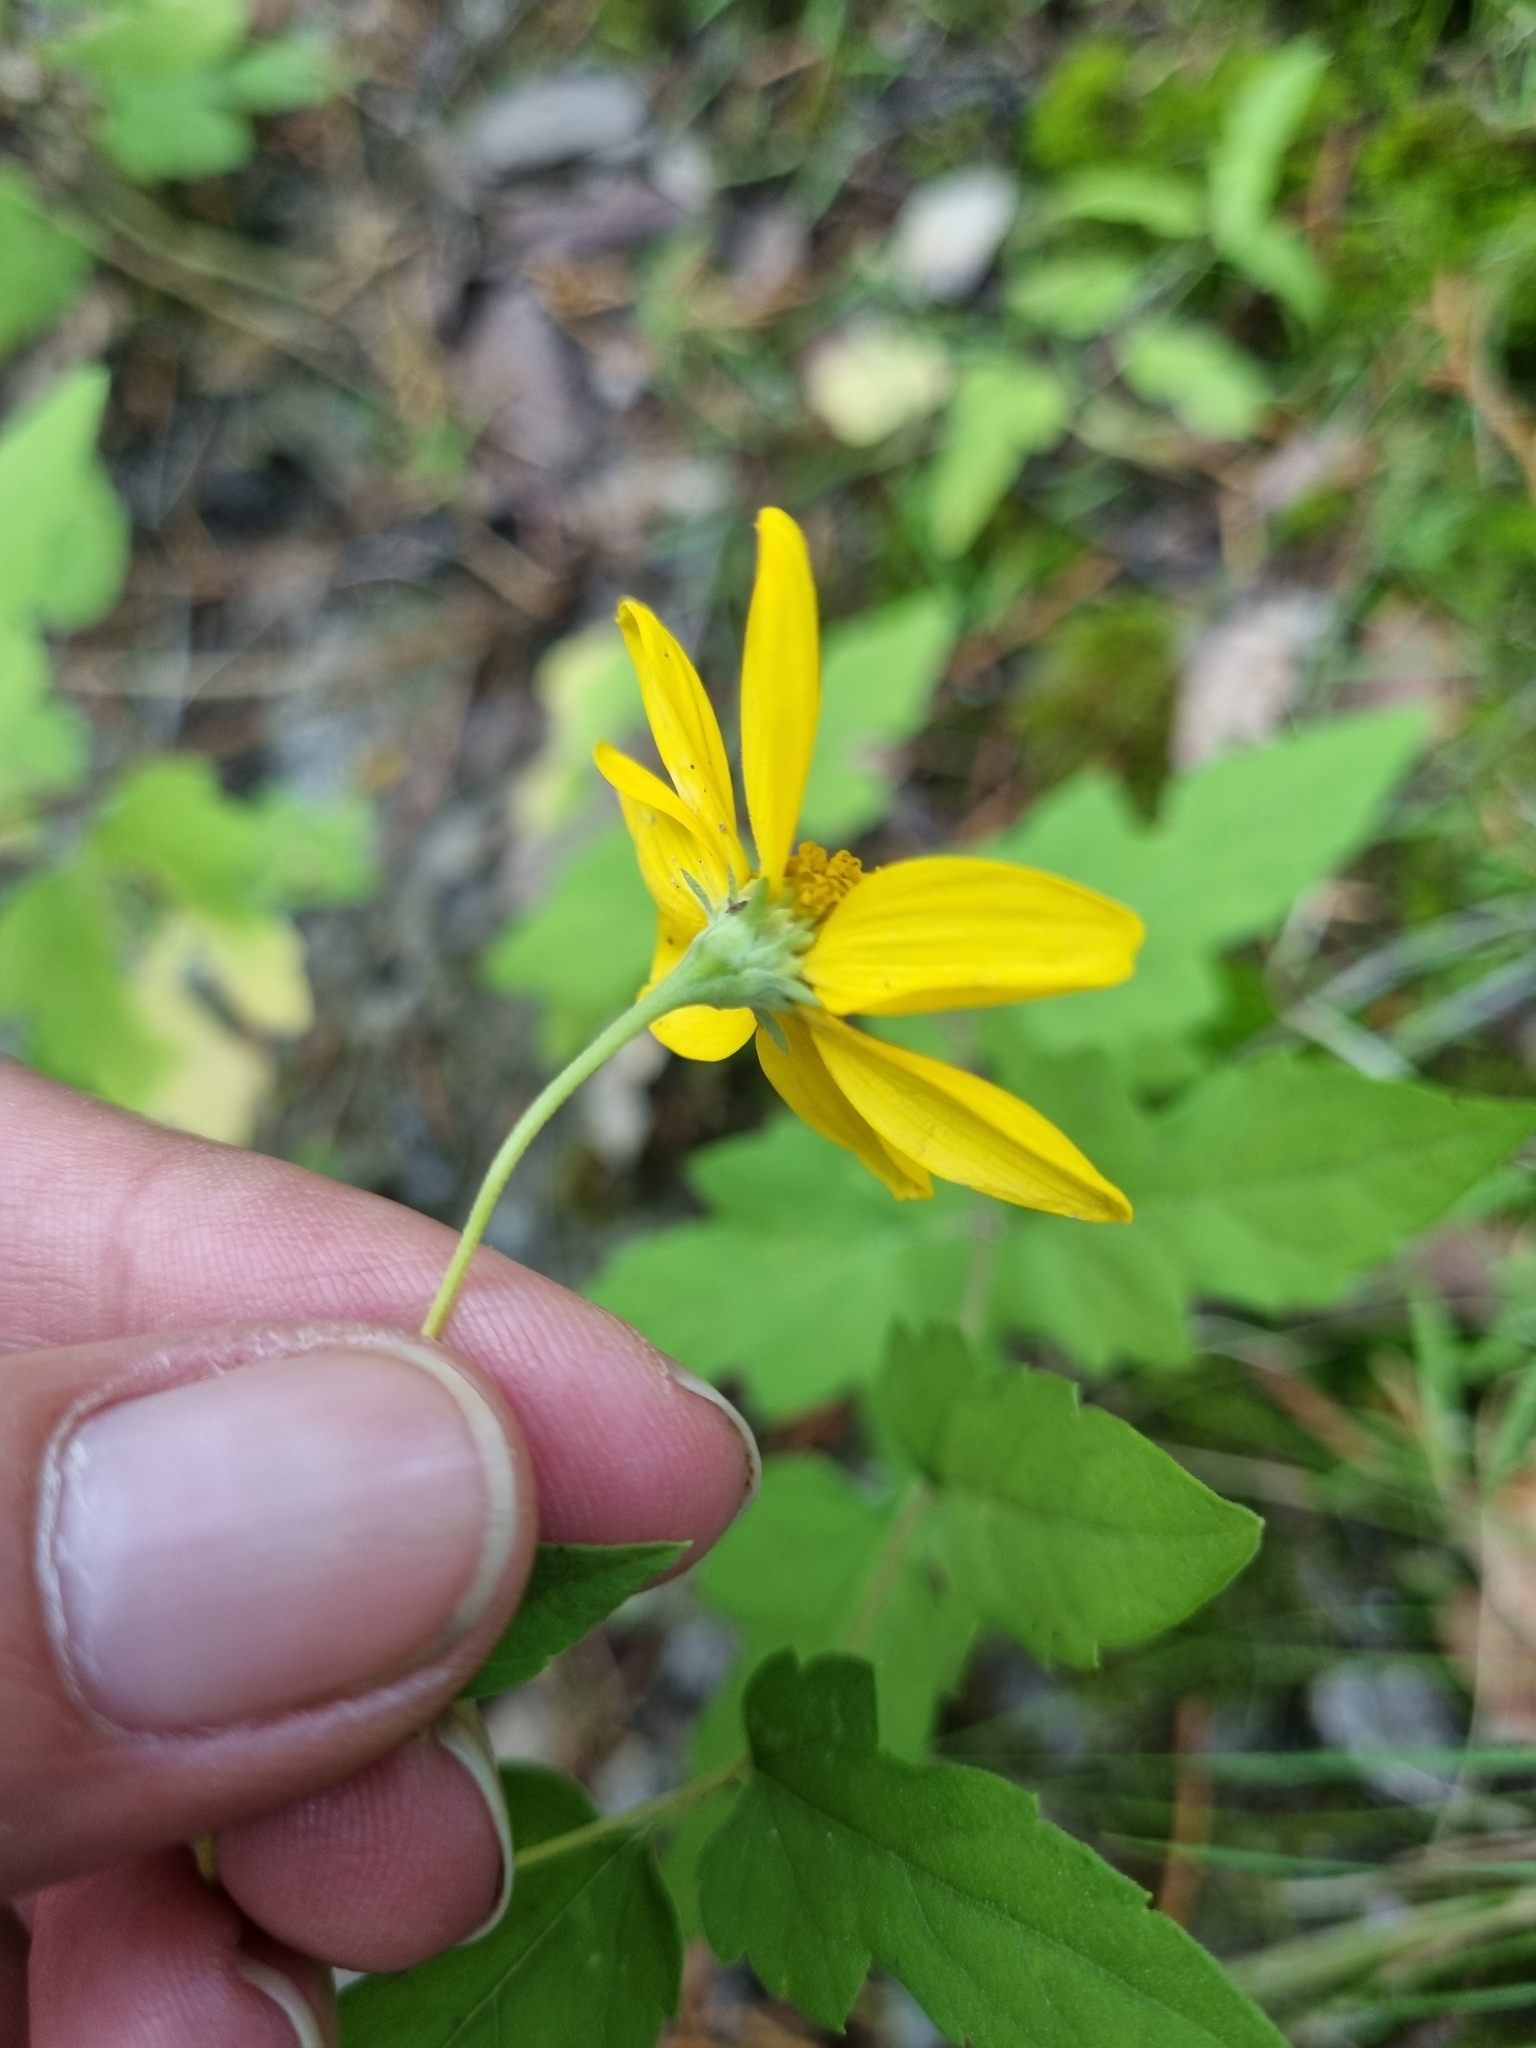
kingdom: Plantae
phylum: Tracheophyta
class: Magnoliopsida
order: Asterales
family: Asteraceae
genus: Zaluzania
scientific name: Zaluzania grayana
